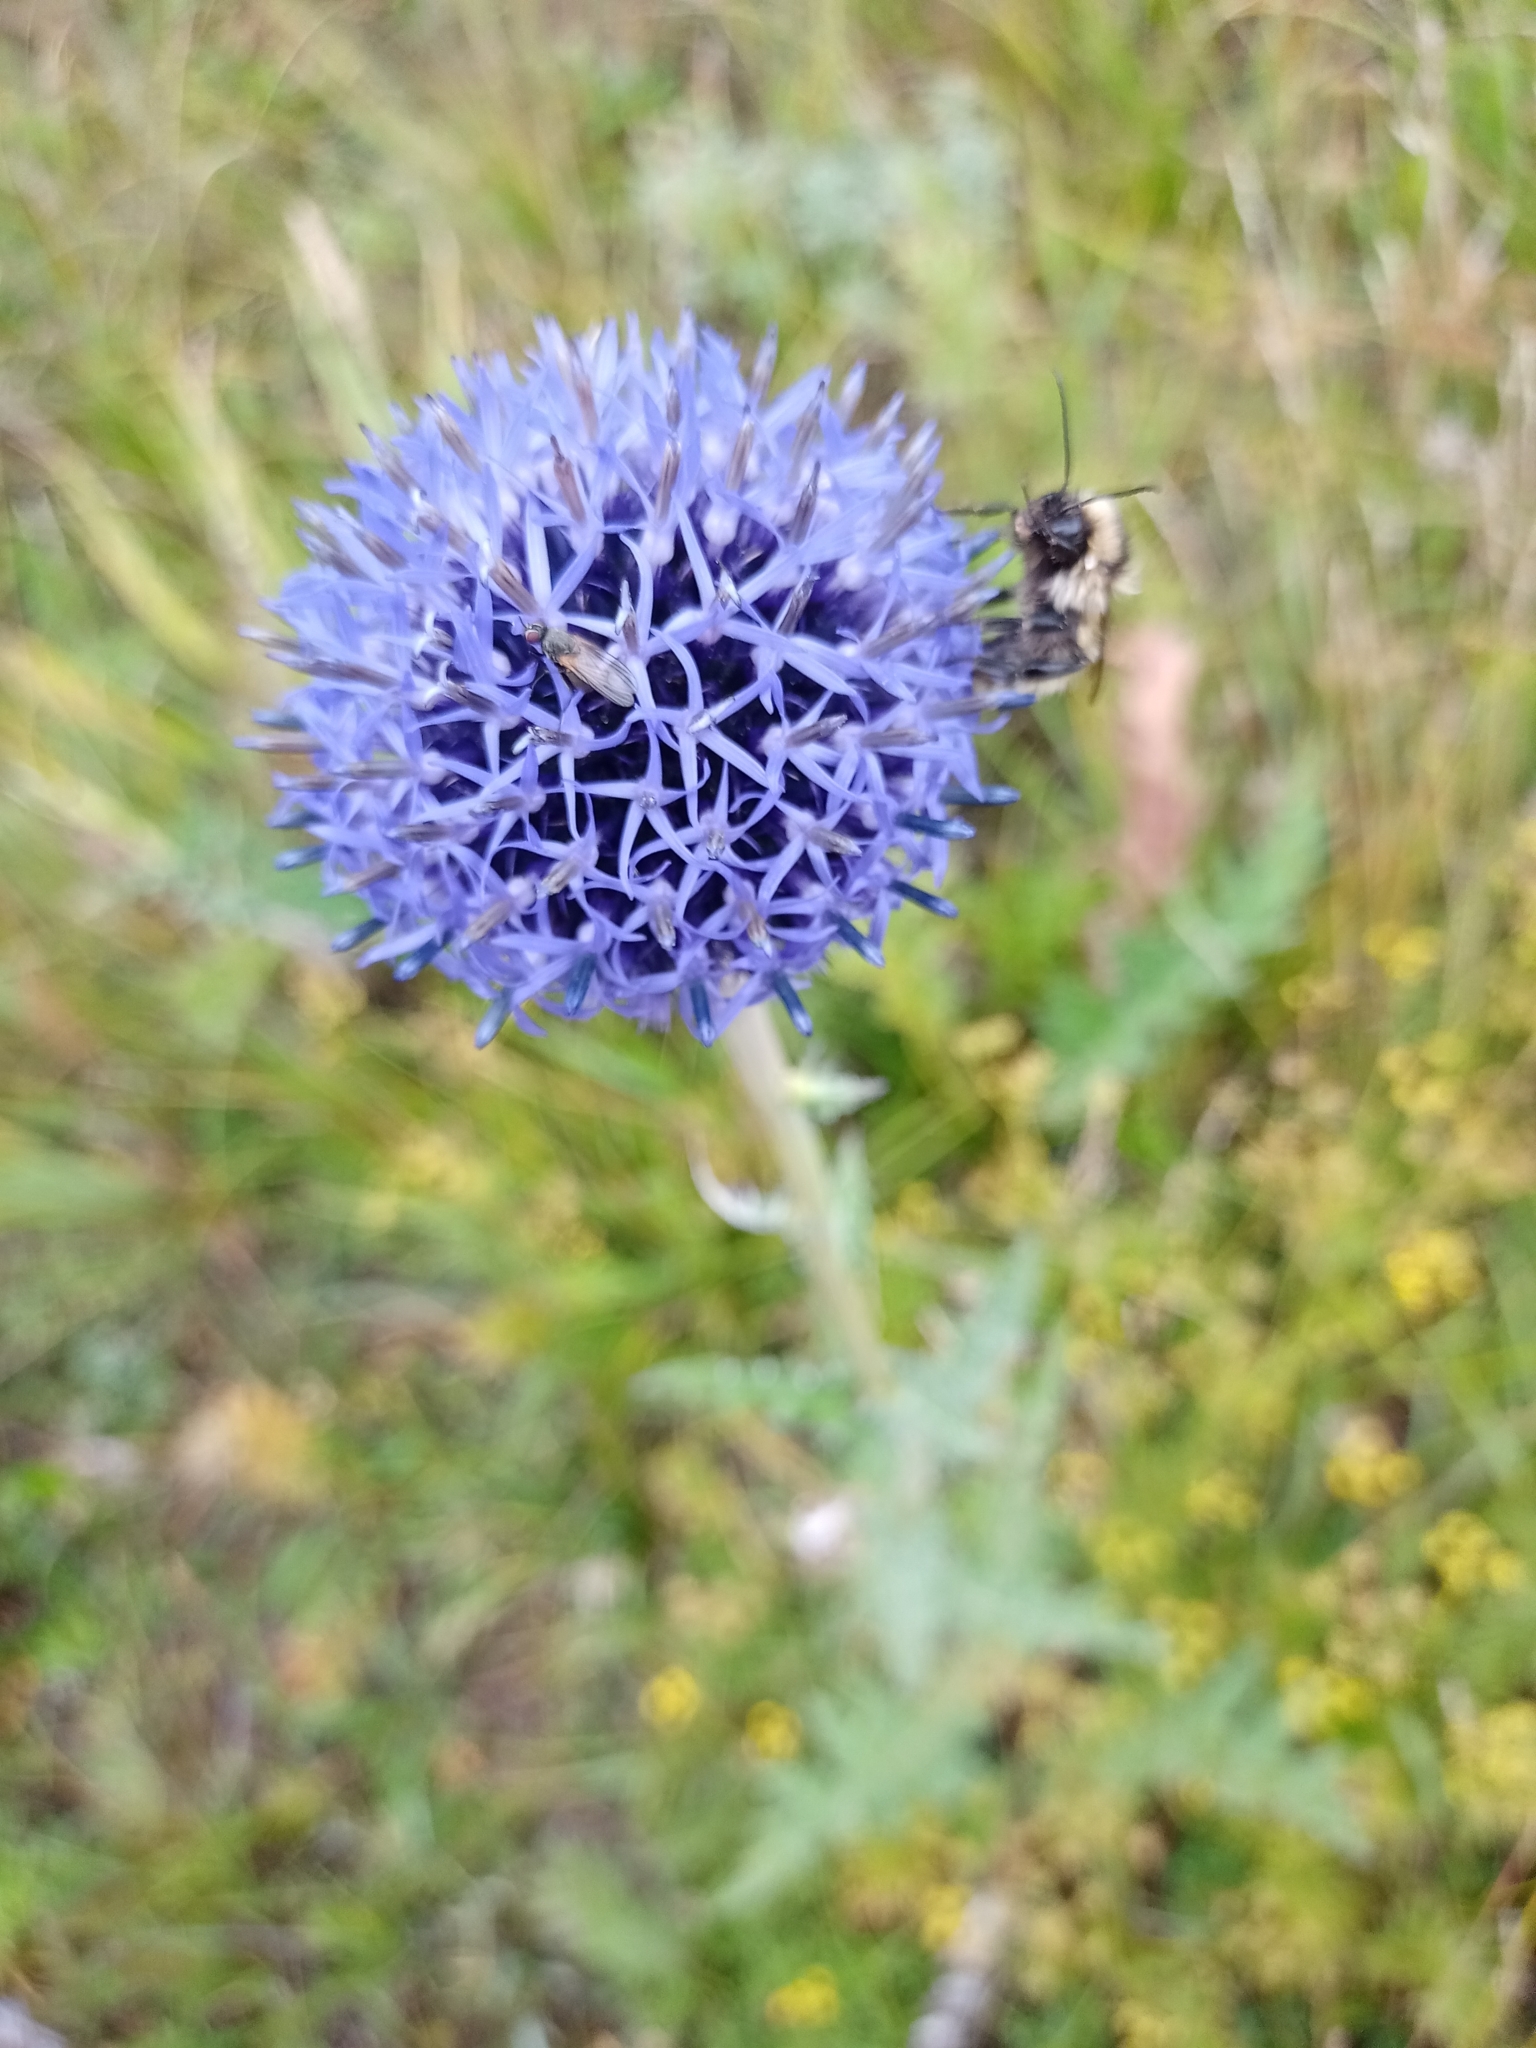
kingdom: Plantae
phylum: Tracheophyta
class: Magnoliopsida
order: Asterales
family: Asteraceae
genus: Echinops
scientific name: Echinops davuricus
